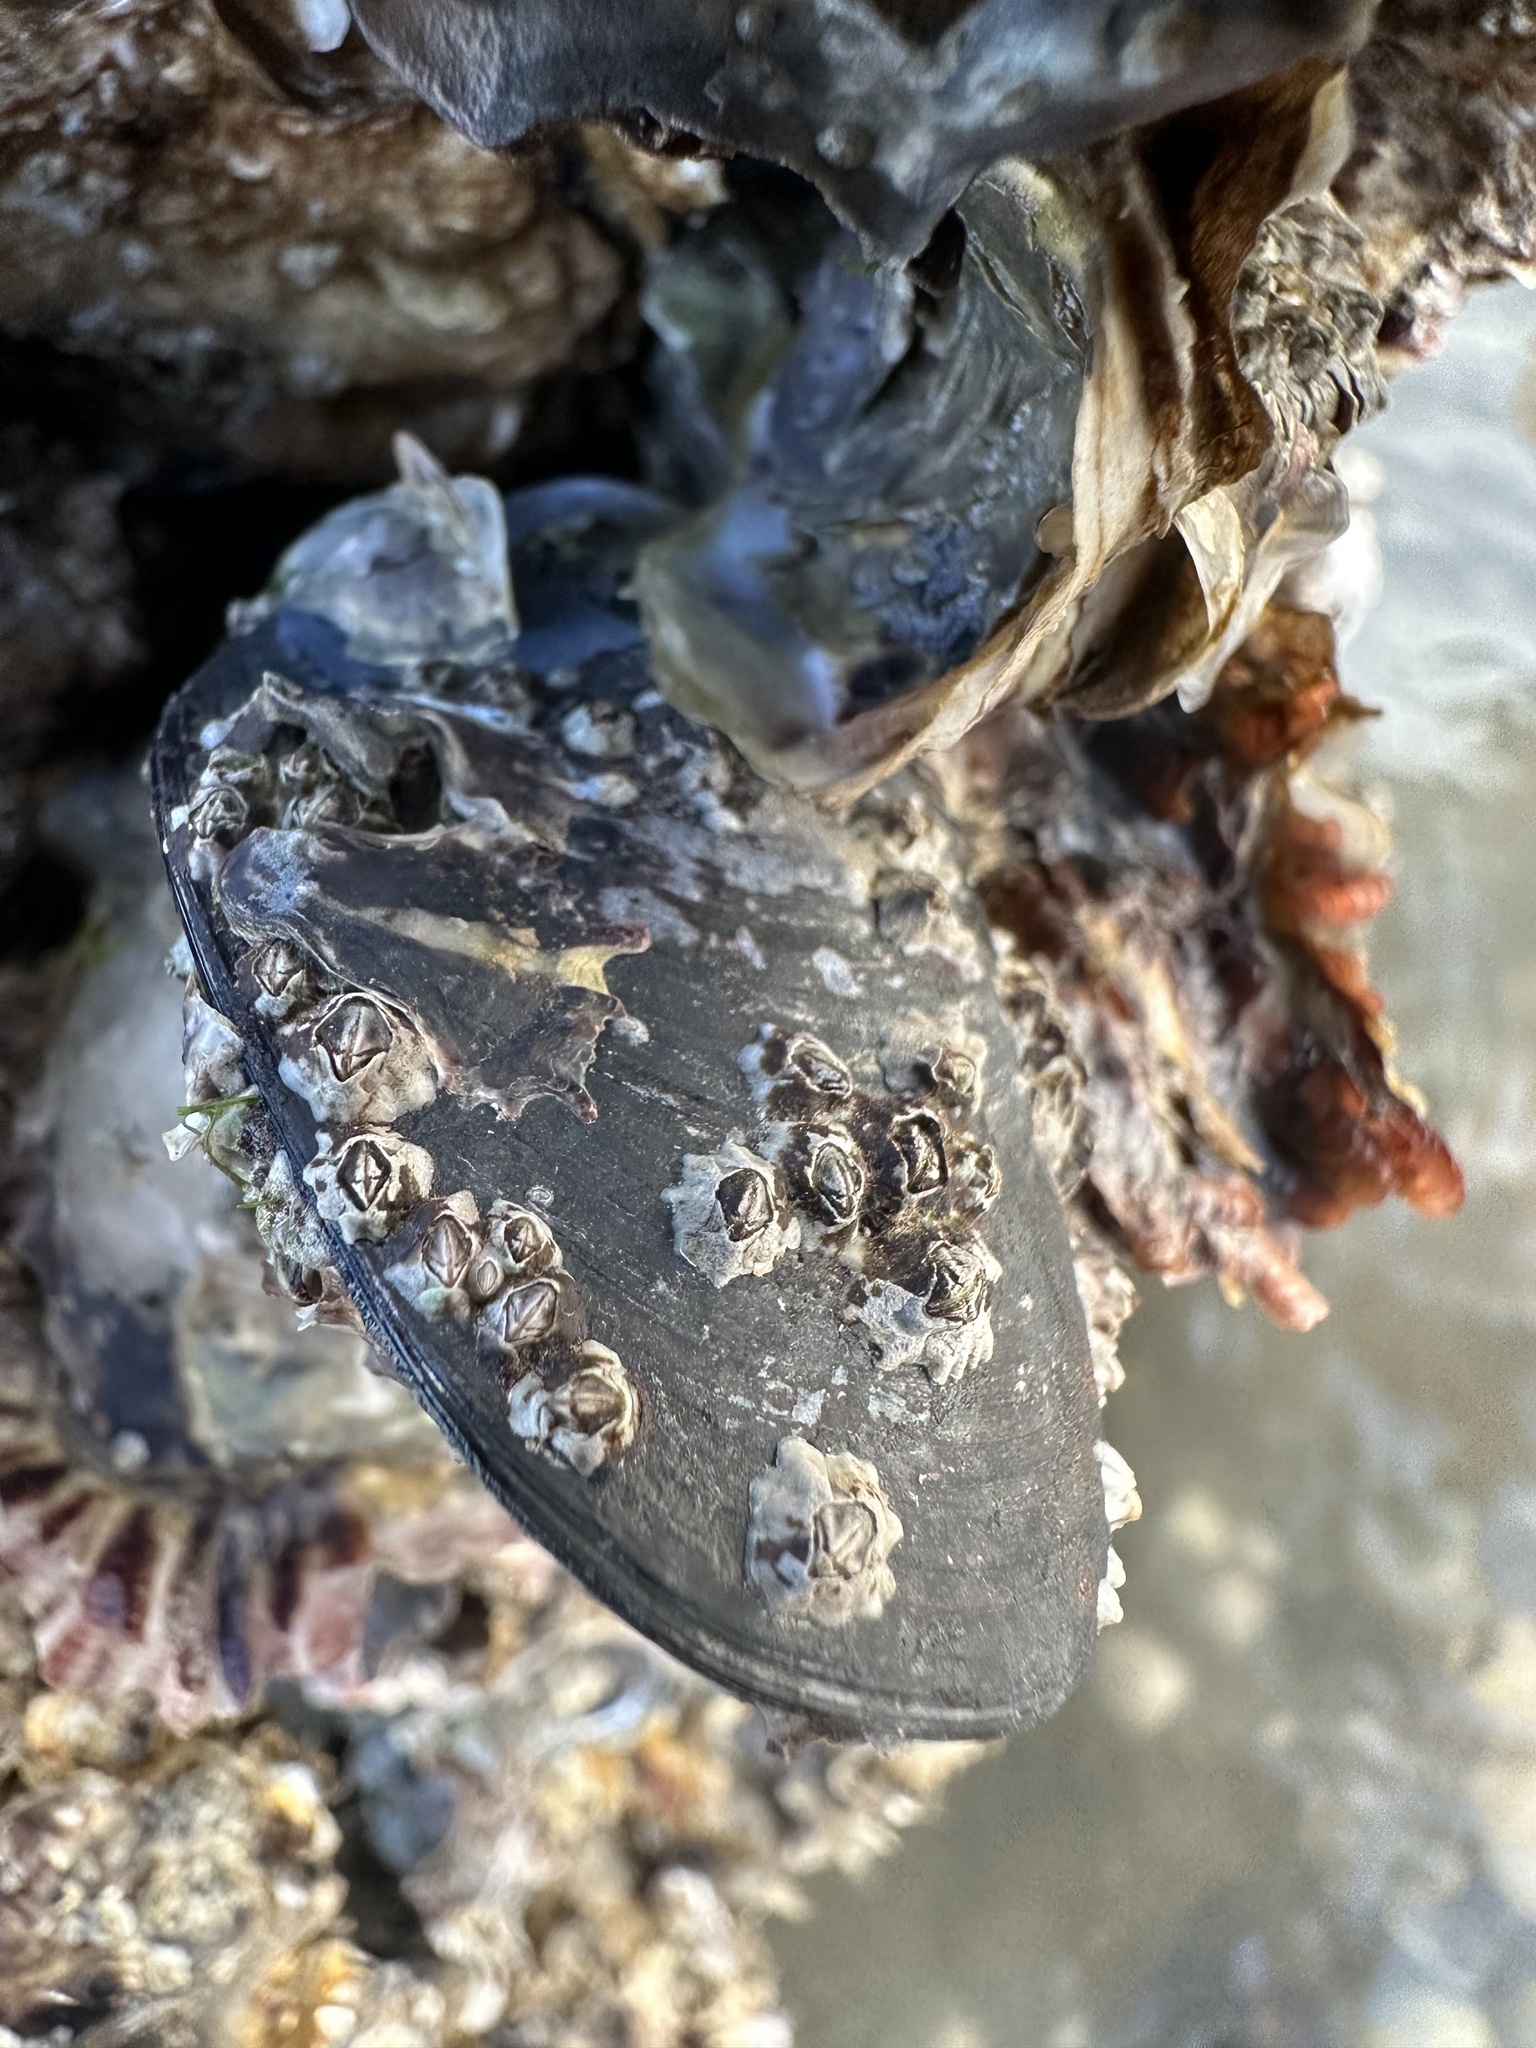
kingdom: Animalia
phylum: Mollusca
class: Bivalvia
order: Mytilida
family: Mytilidae
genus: Mytilus
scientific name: Mytilus planulatus
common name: Australian mussel
